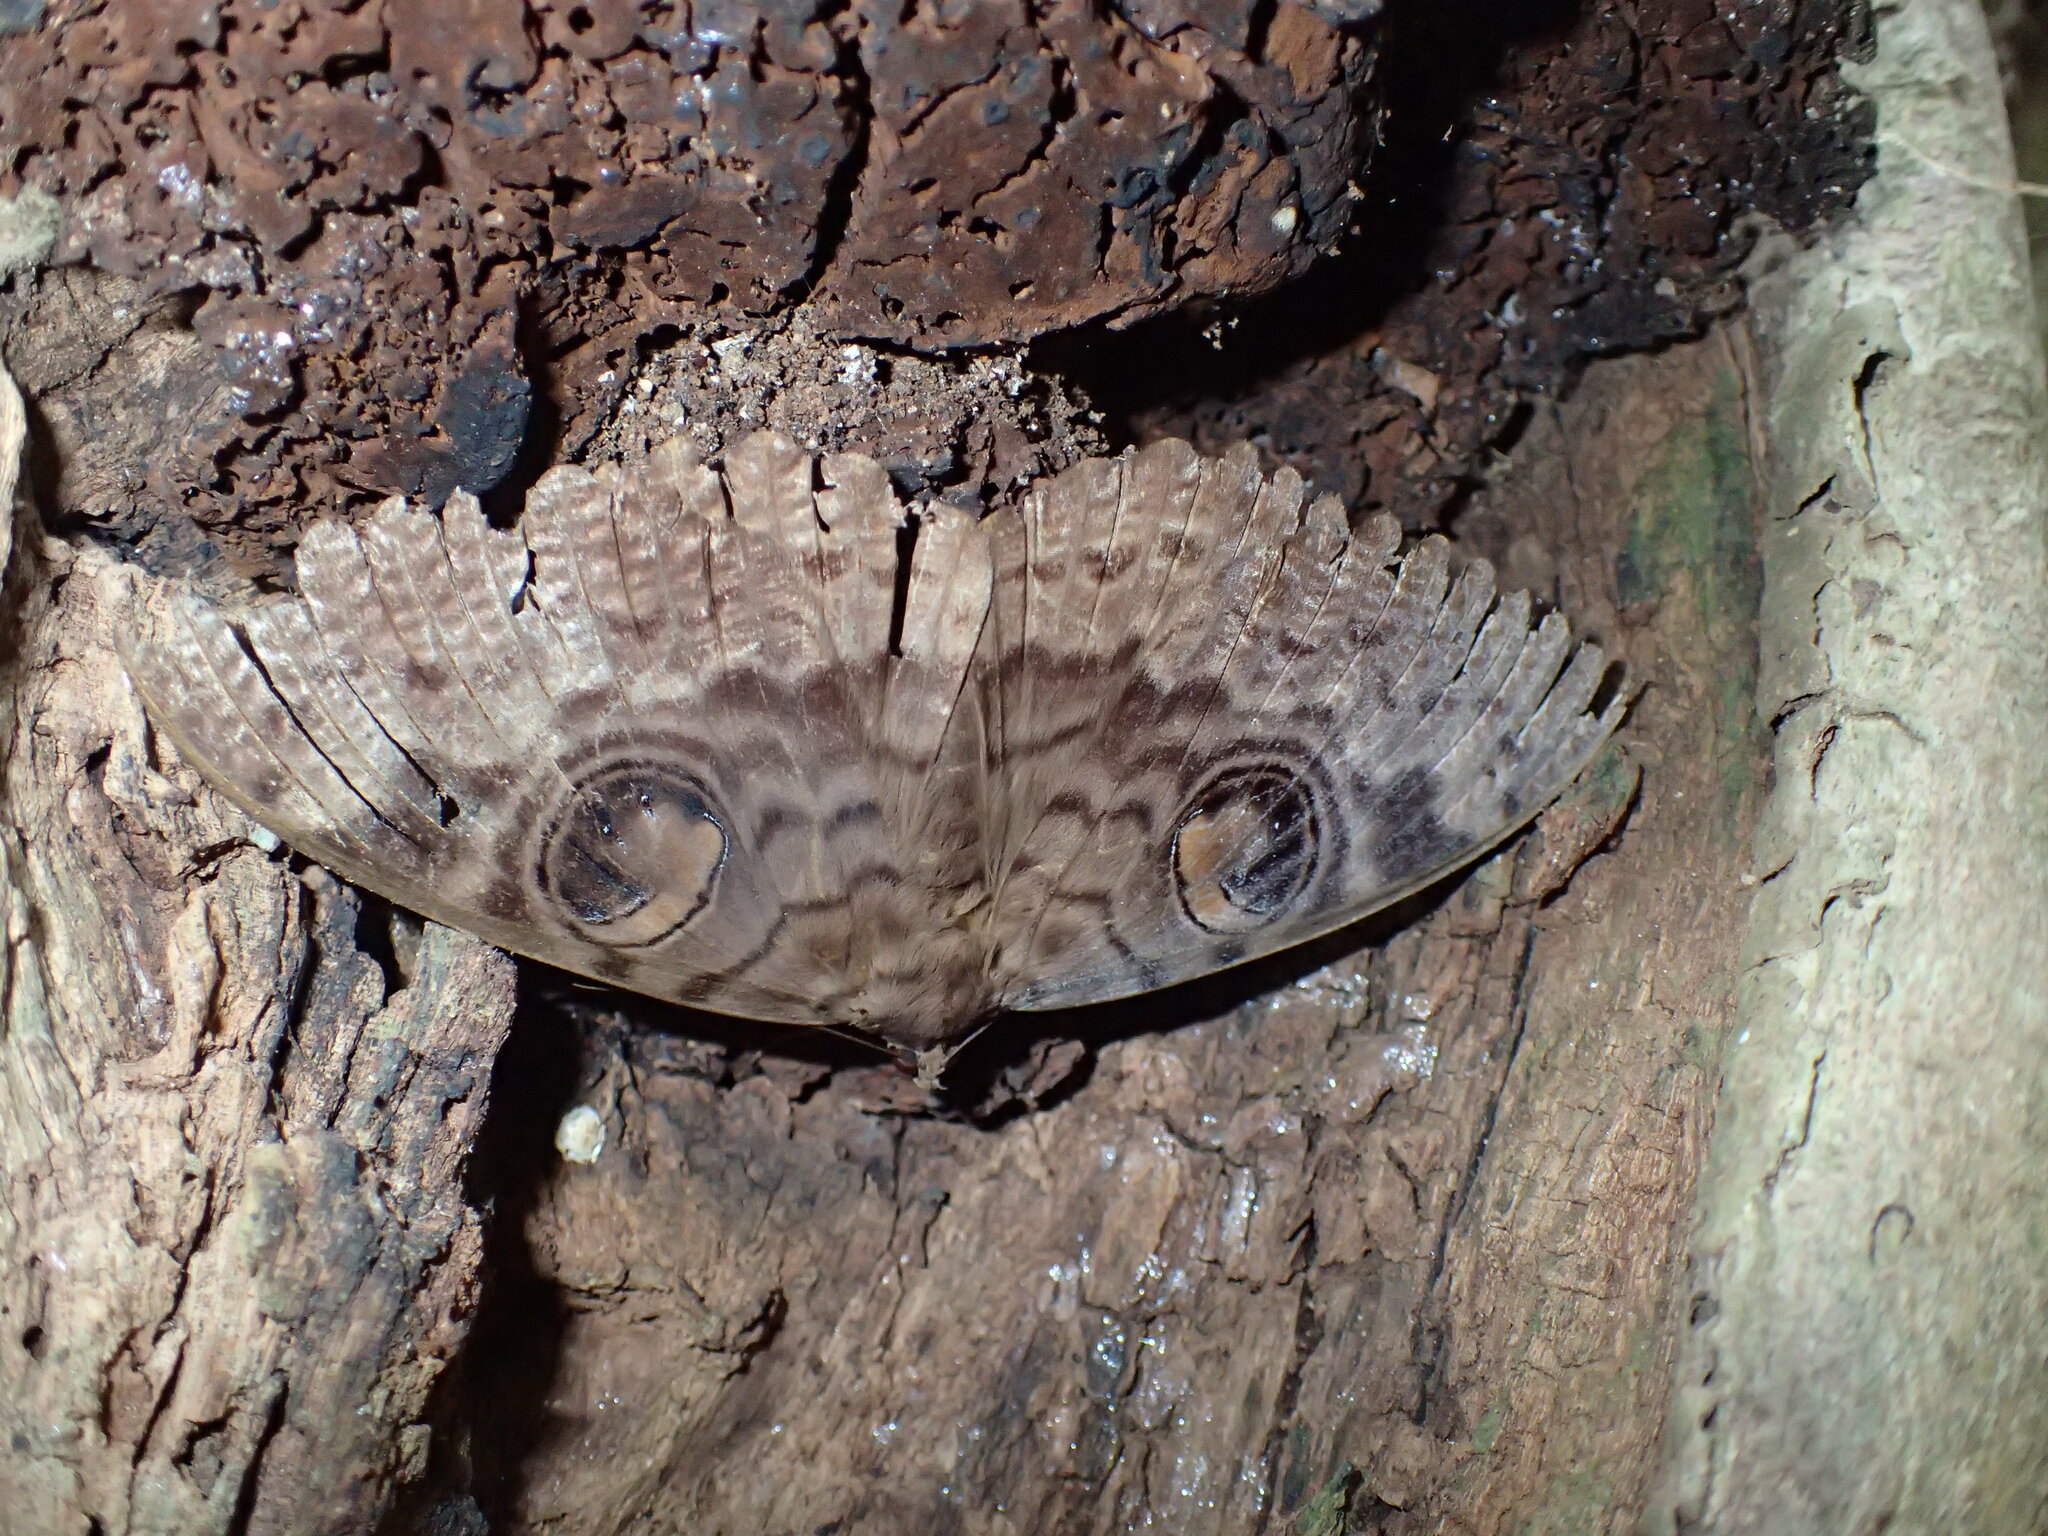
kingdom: Animalia
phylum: Arthropoda
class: Insecta
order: Lepidoptera
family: Erebidae
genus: Erebus
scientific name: Erebus walkeri
